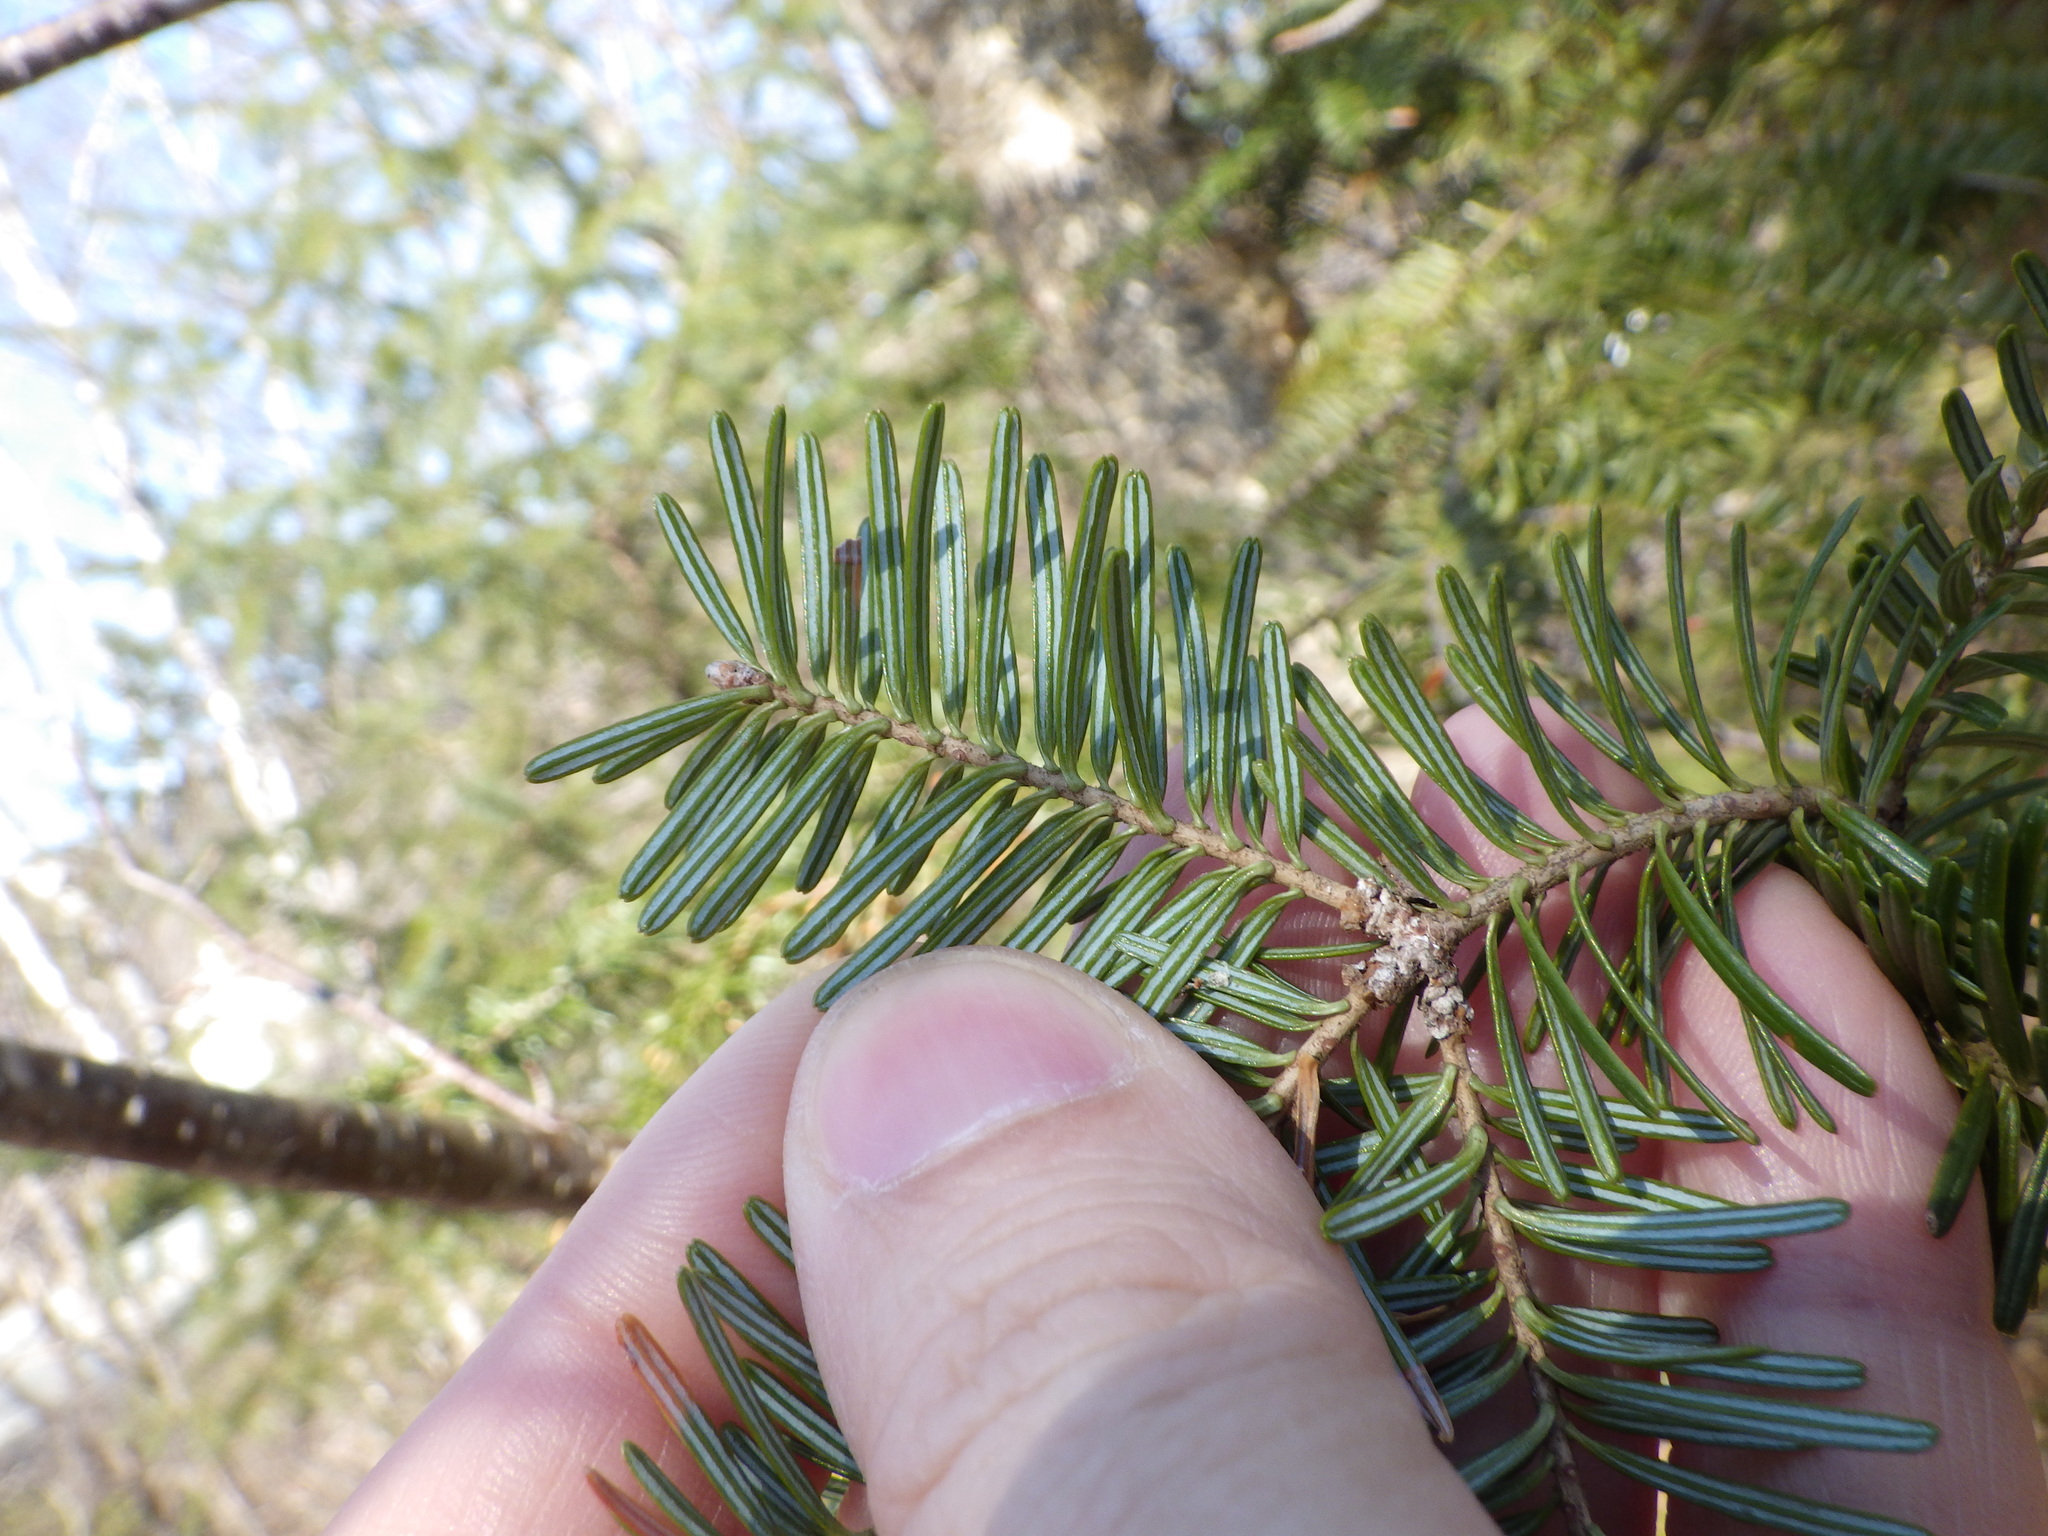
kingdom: Plantae
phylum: Tracheophyta
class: Pinopsida
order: Pinales
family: Pinaceae
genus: Abies
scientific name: Abies balsamea
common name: Balsam fir
